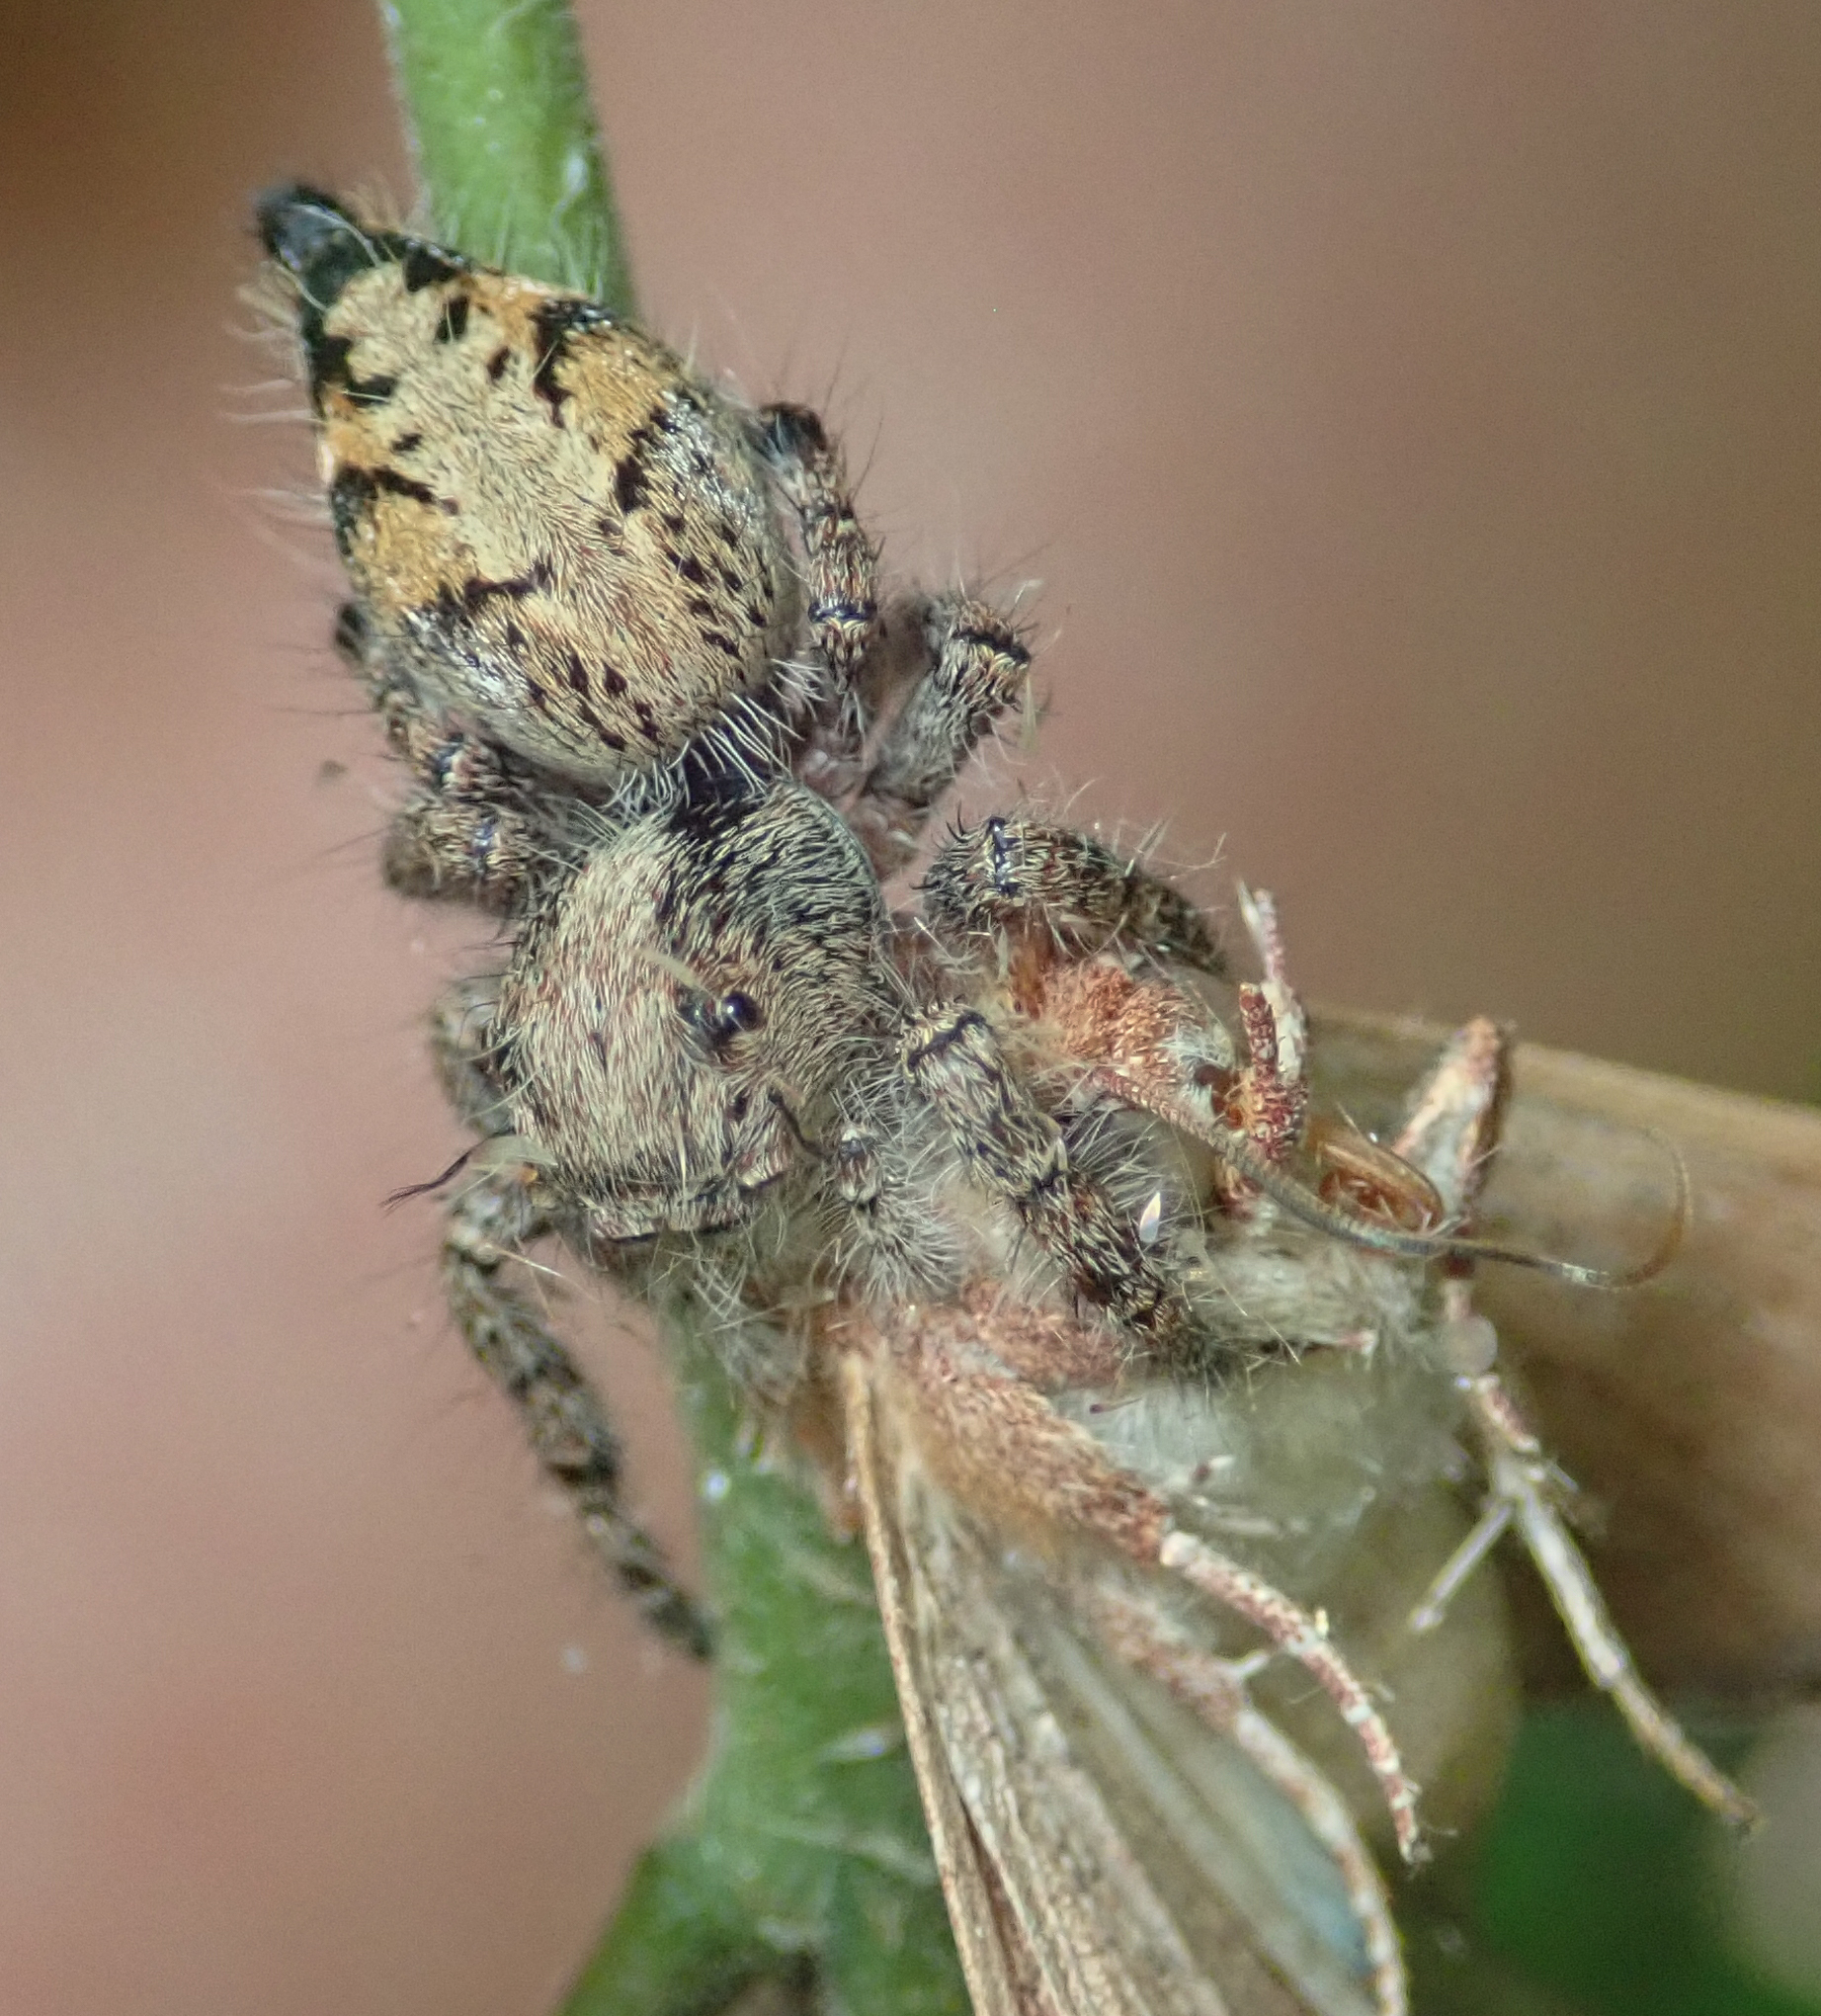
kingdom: Animalia
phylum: Arthropoda
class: Arachnida
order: Araneae
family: Salticidae
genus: Hyllus
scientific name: Hyllus brevitarsis
